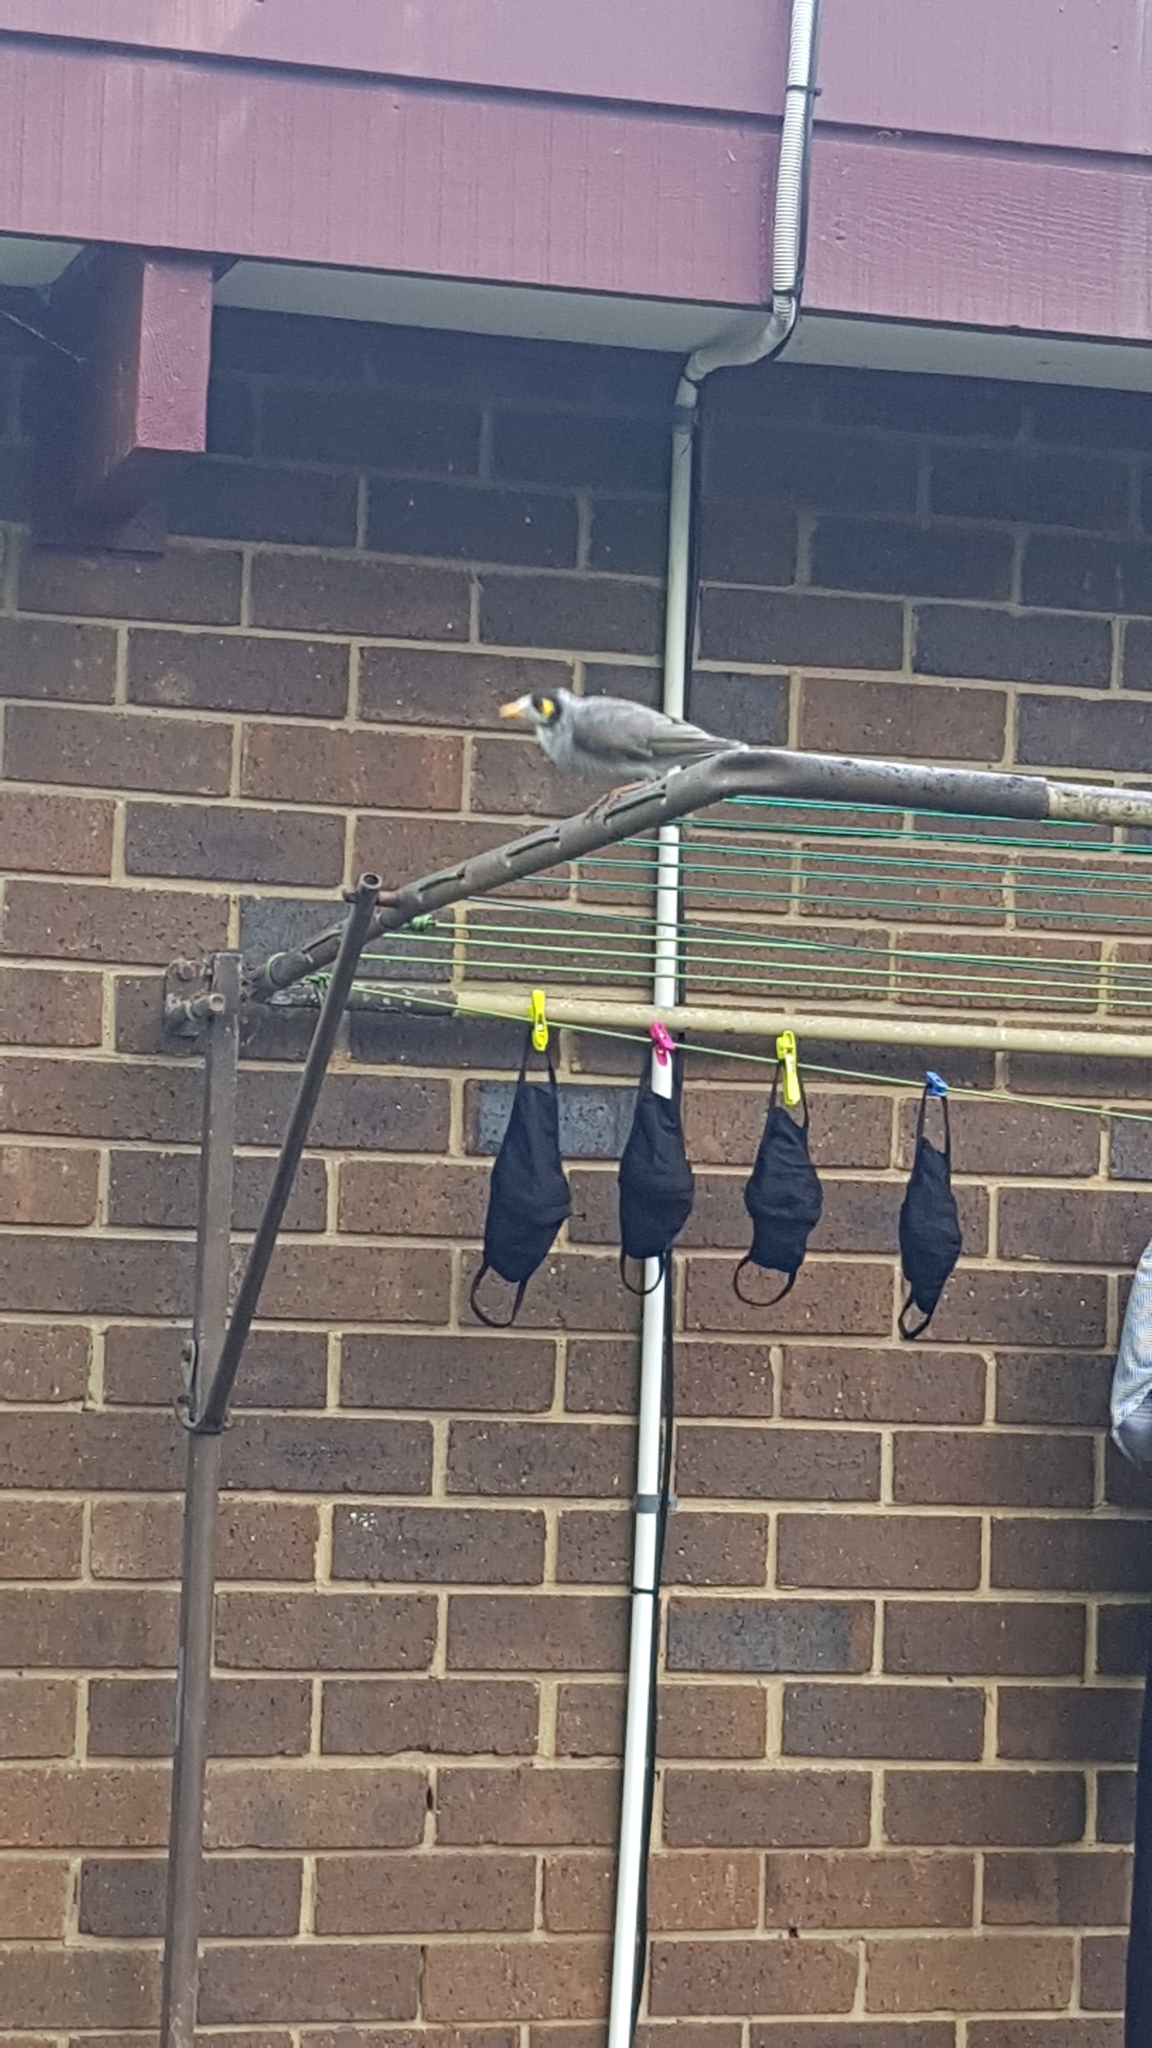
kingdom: Animalia
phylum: Chordata
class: Aves
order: Passeriformes
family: Meliphagidae
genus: Manorina
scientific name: Manorina melanocephala
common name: Noisy miner
